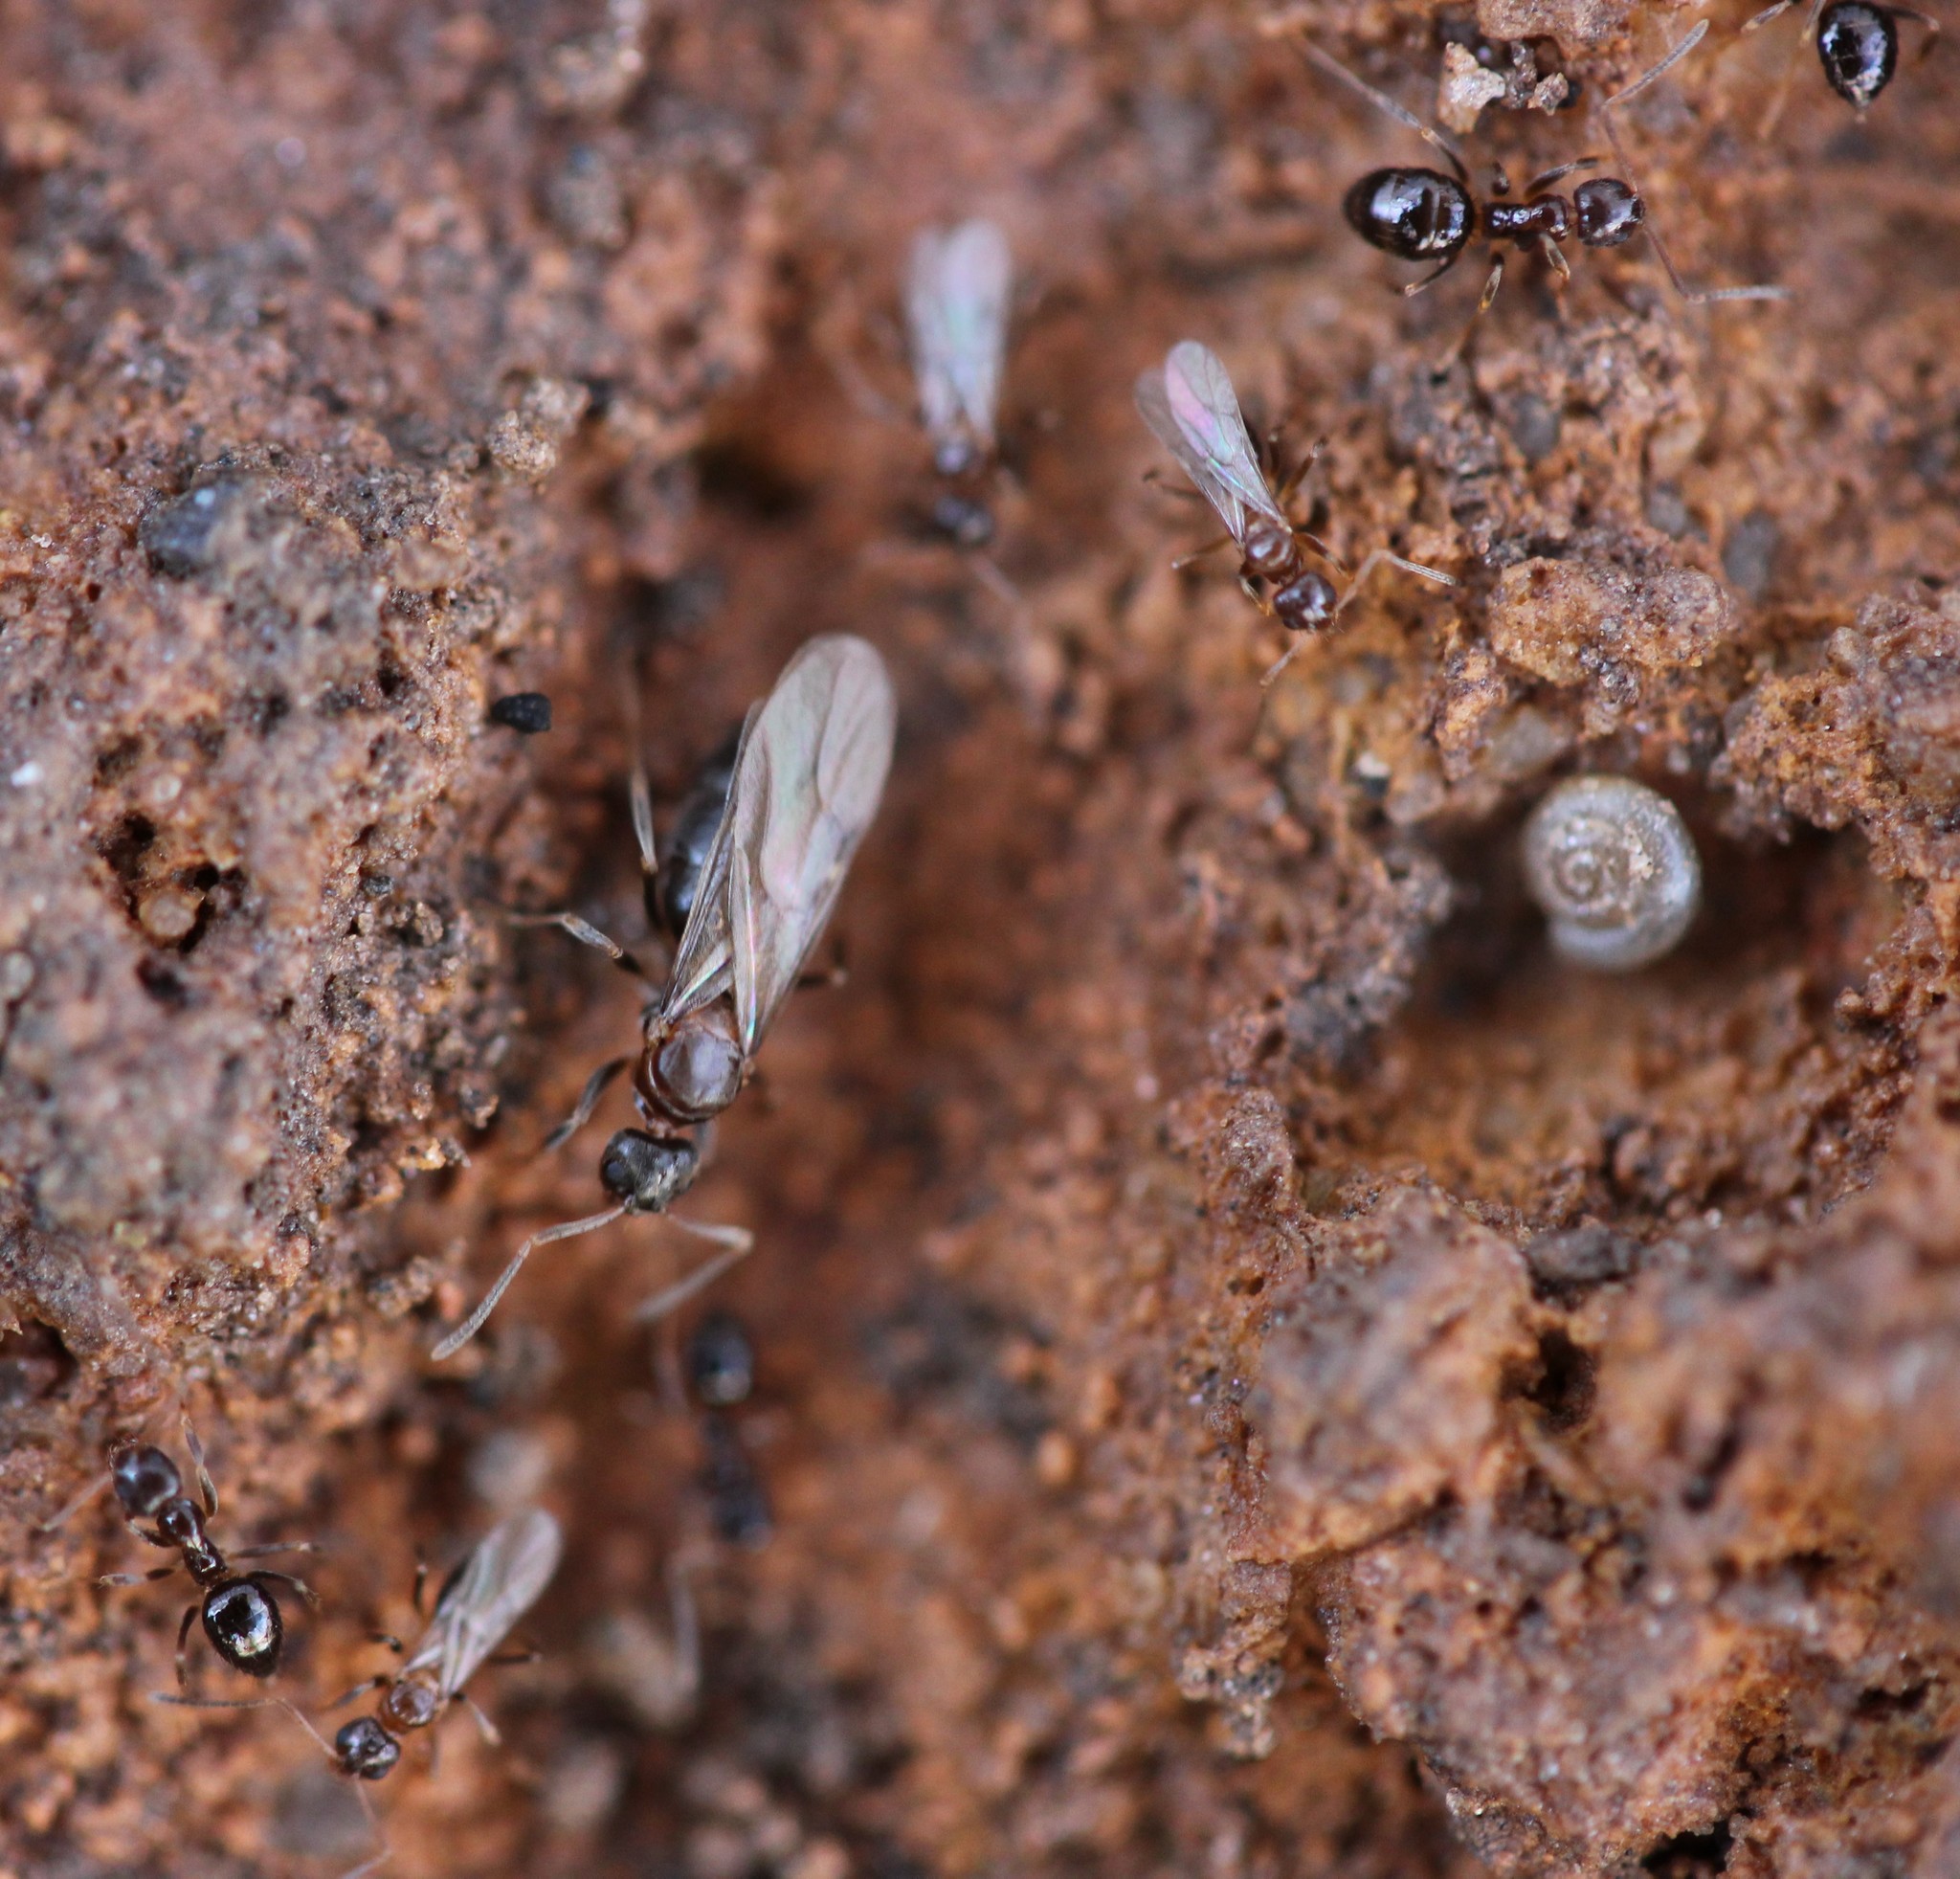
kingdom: Animalia
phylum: Arthropoda
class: Insecta
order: Hymenoptera
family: Formicidae
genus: Nylanderia
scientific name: Nylanderia faisonensis
